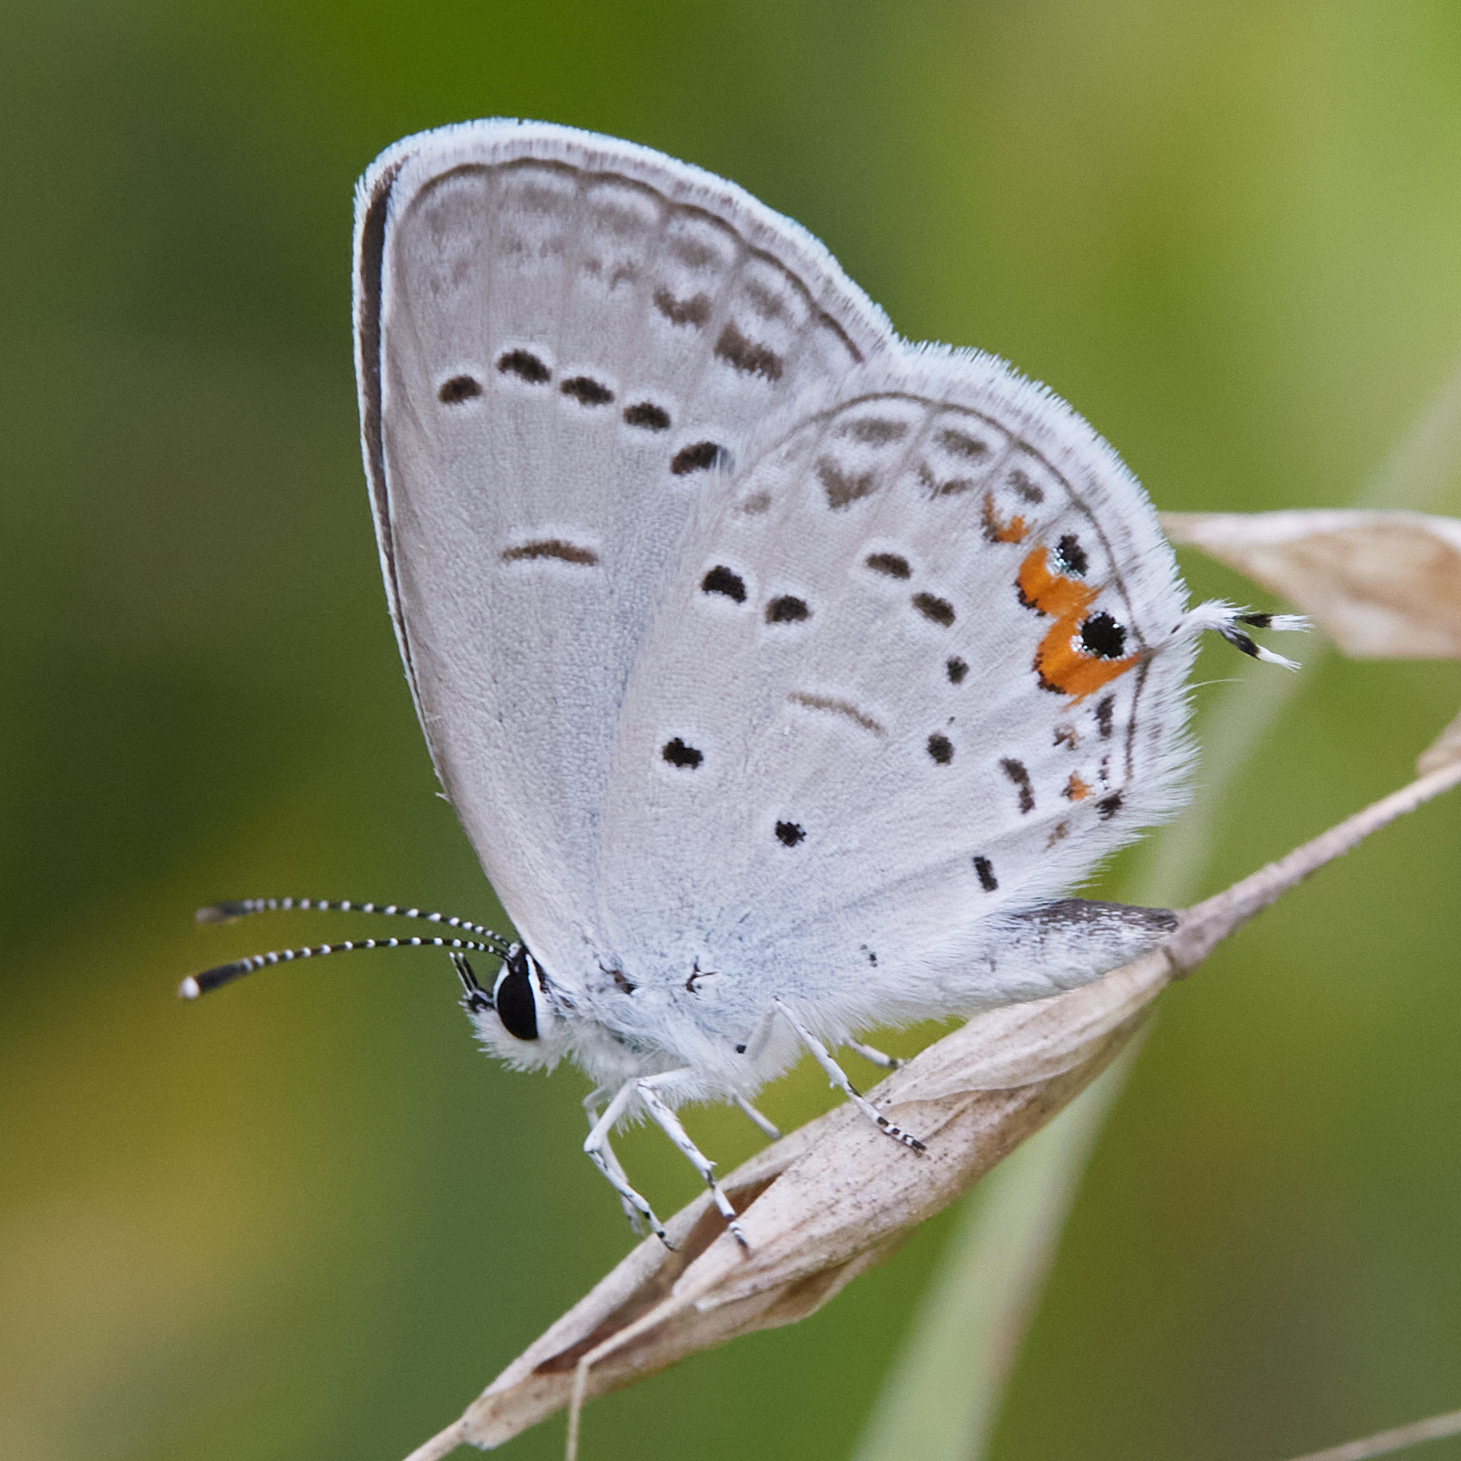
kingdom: Animalia
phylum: Arthropoda
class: Insecta
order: Lepidoptera
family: Lycaenidae
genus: Elkalyce
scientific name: Elkalyce comyntas
